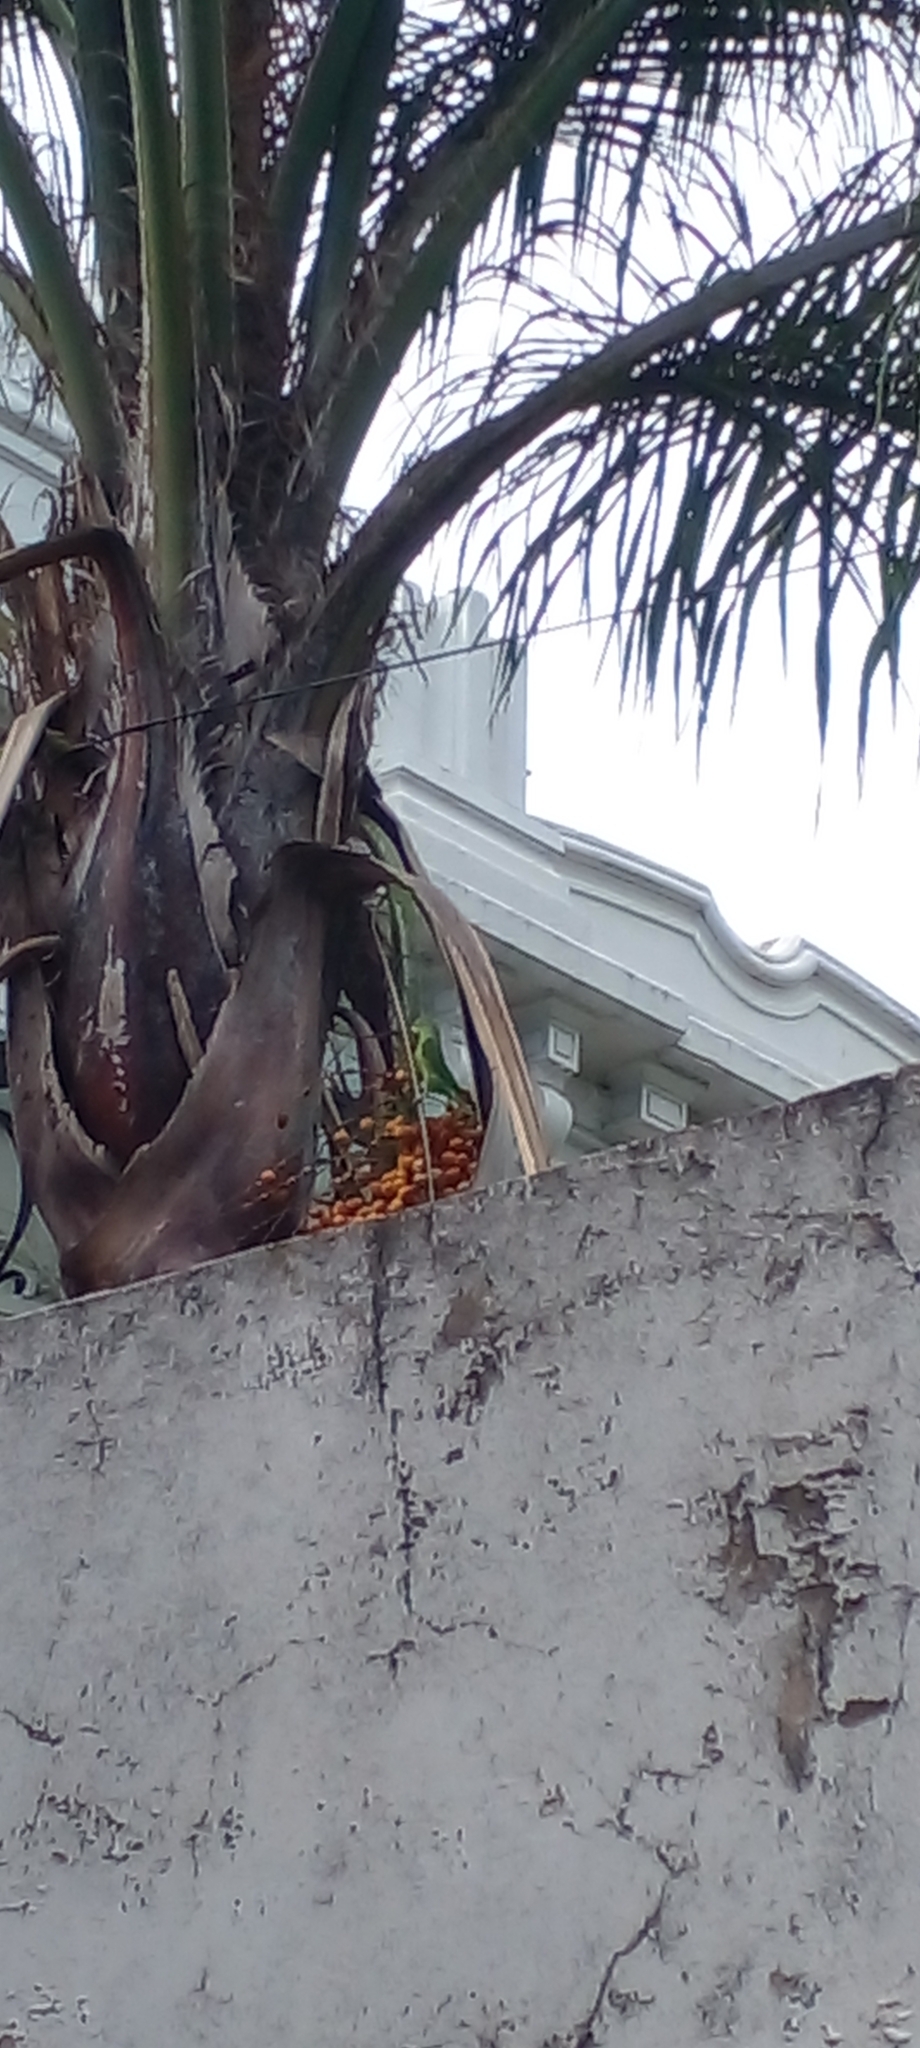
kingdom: Animalia
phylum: Chordata
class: Aves
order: Psittaciformes
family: Psittacidae
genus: Brotogeris
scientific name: Brotogeris chiriri
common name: Yellow-chevroned parakeet
